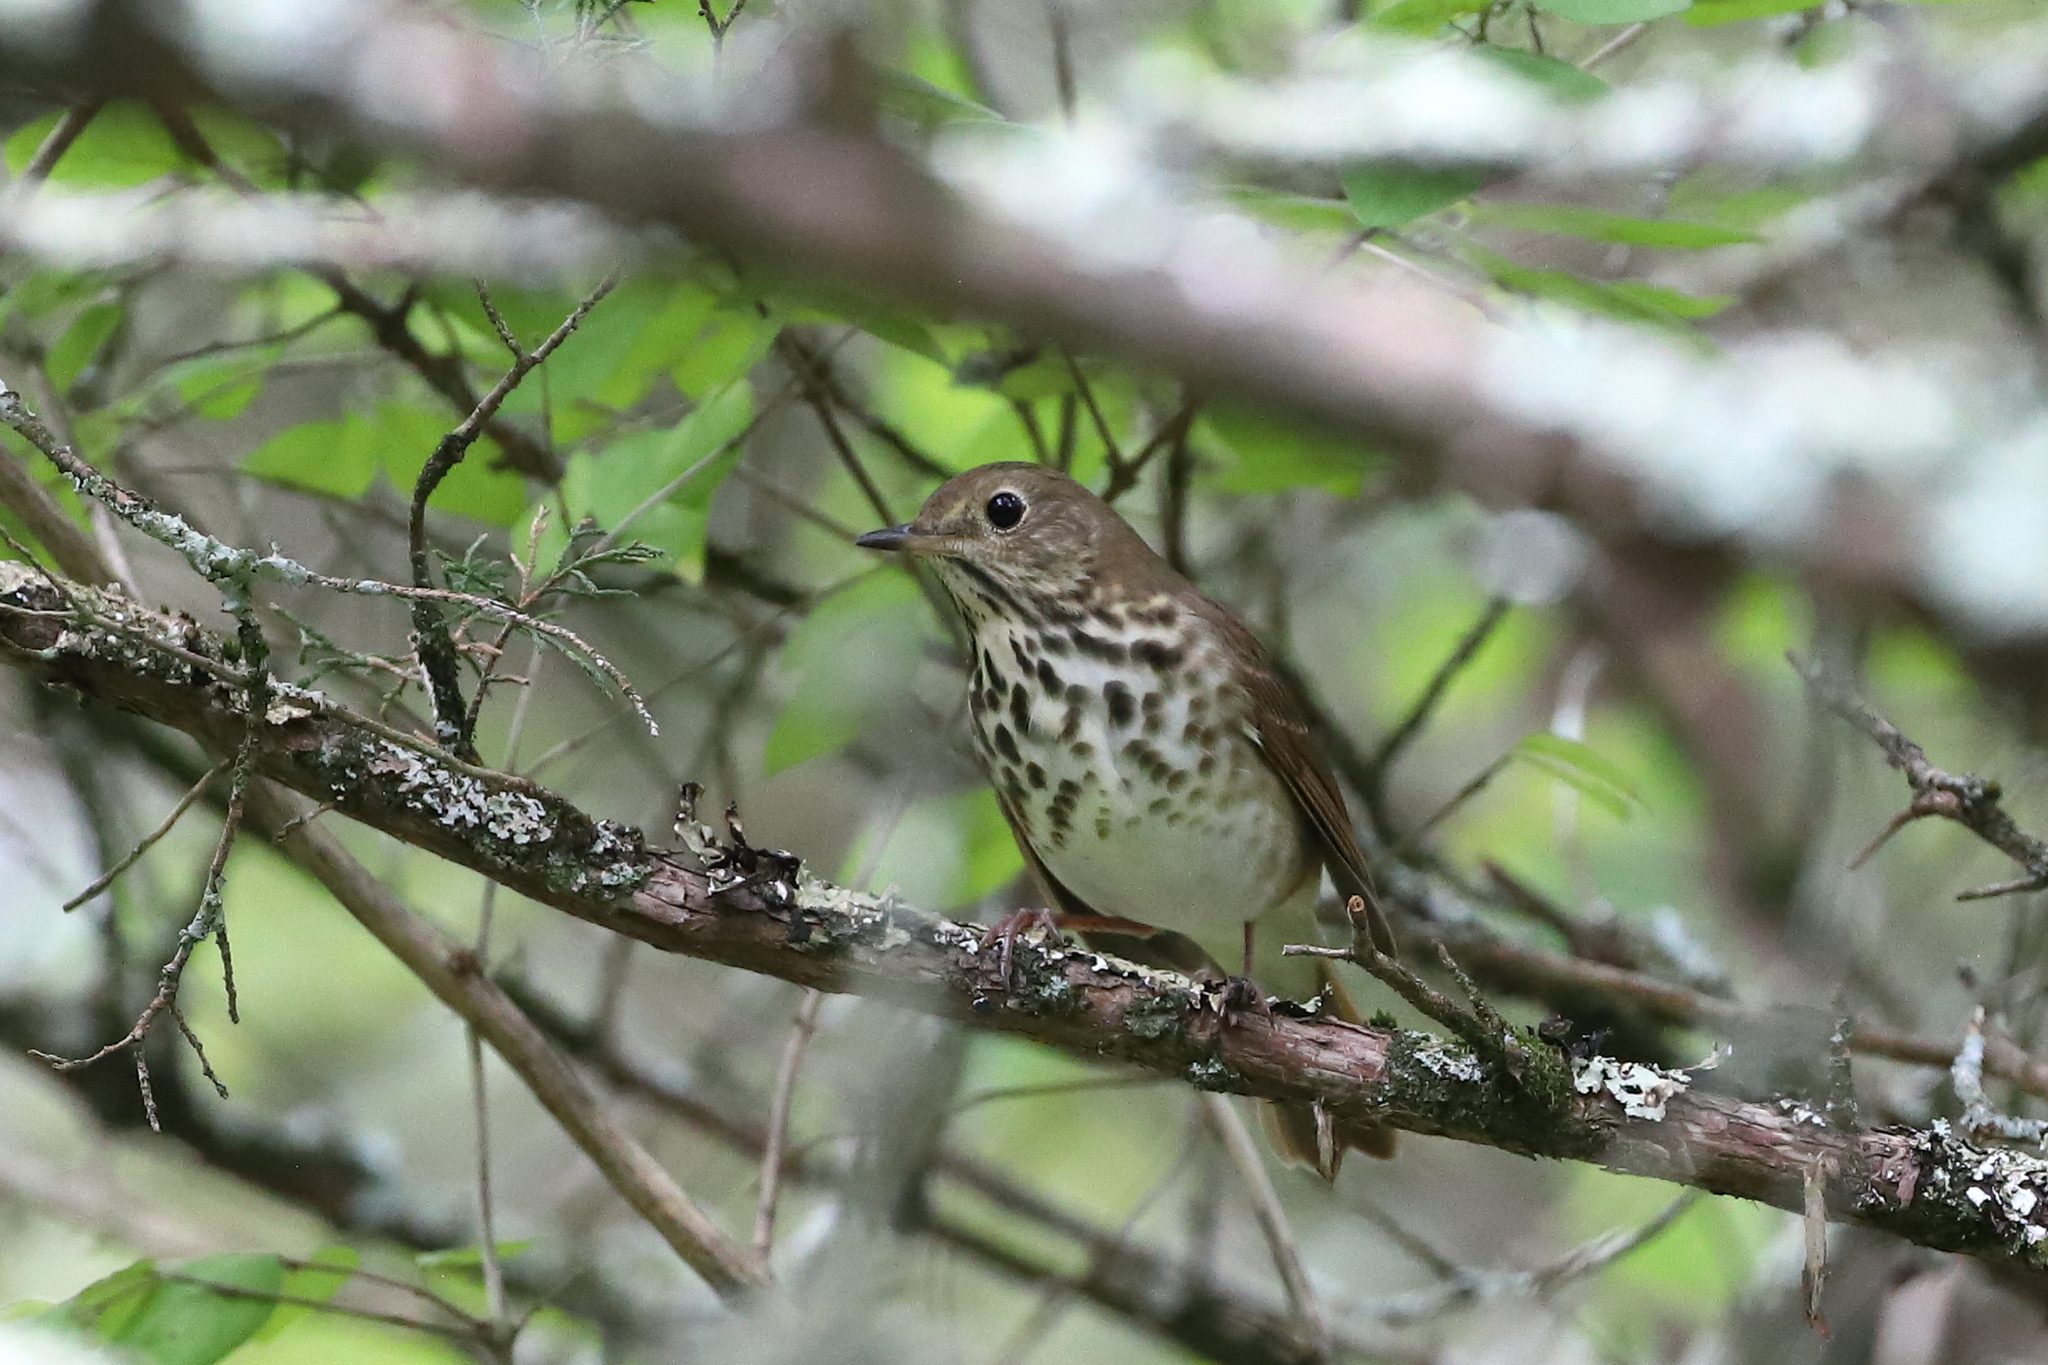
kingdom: Animalia
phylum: Chordata
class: Aves
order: Passeriformes
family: Turdidae
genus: Catharus
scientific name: Catharus guttatus
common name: Hermit thrush
